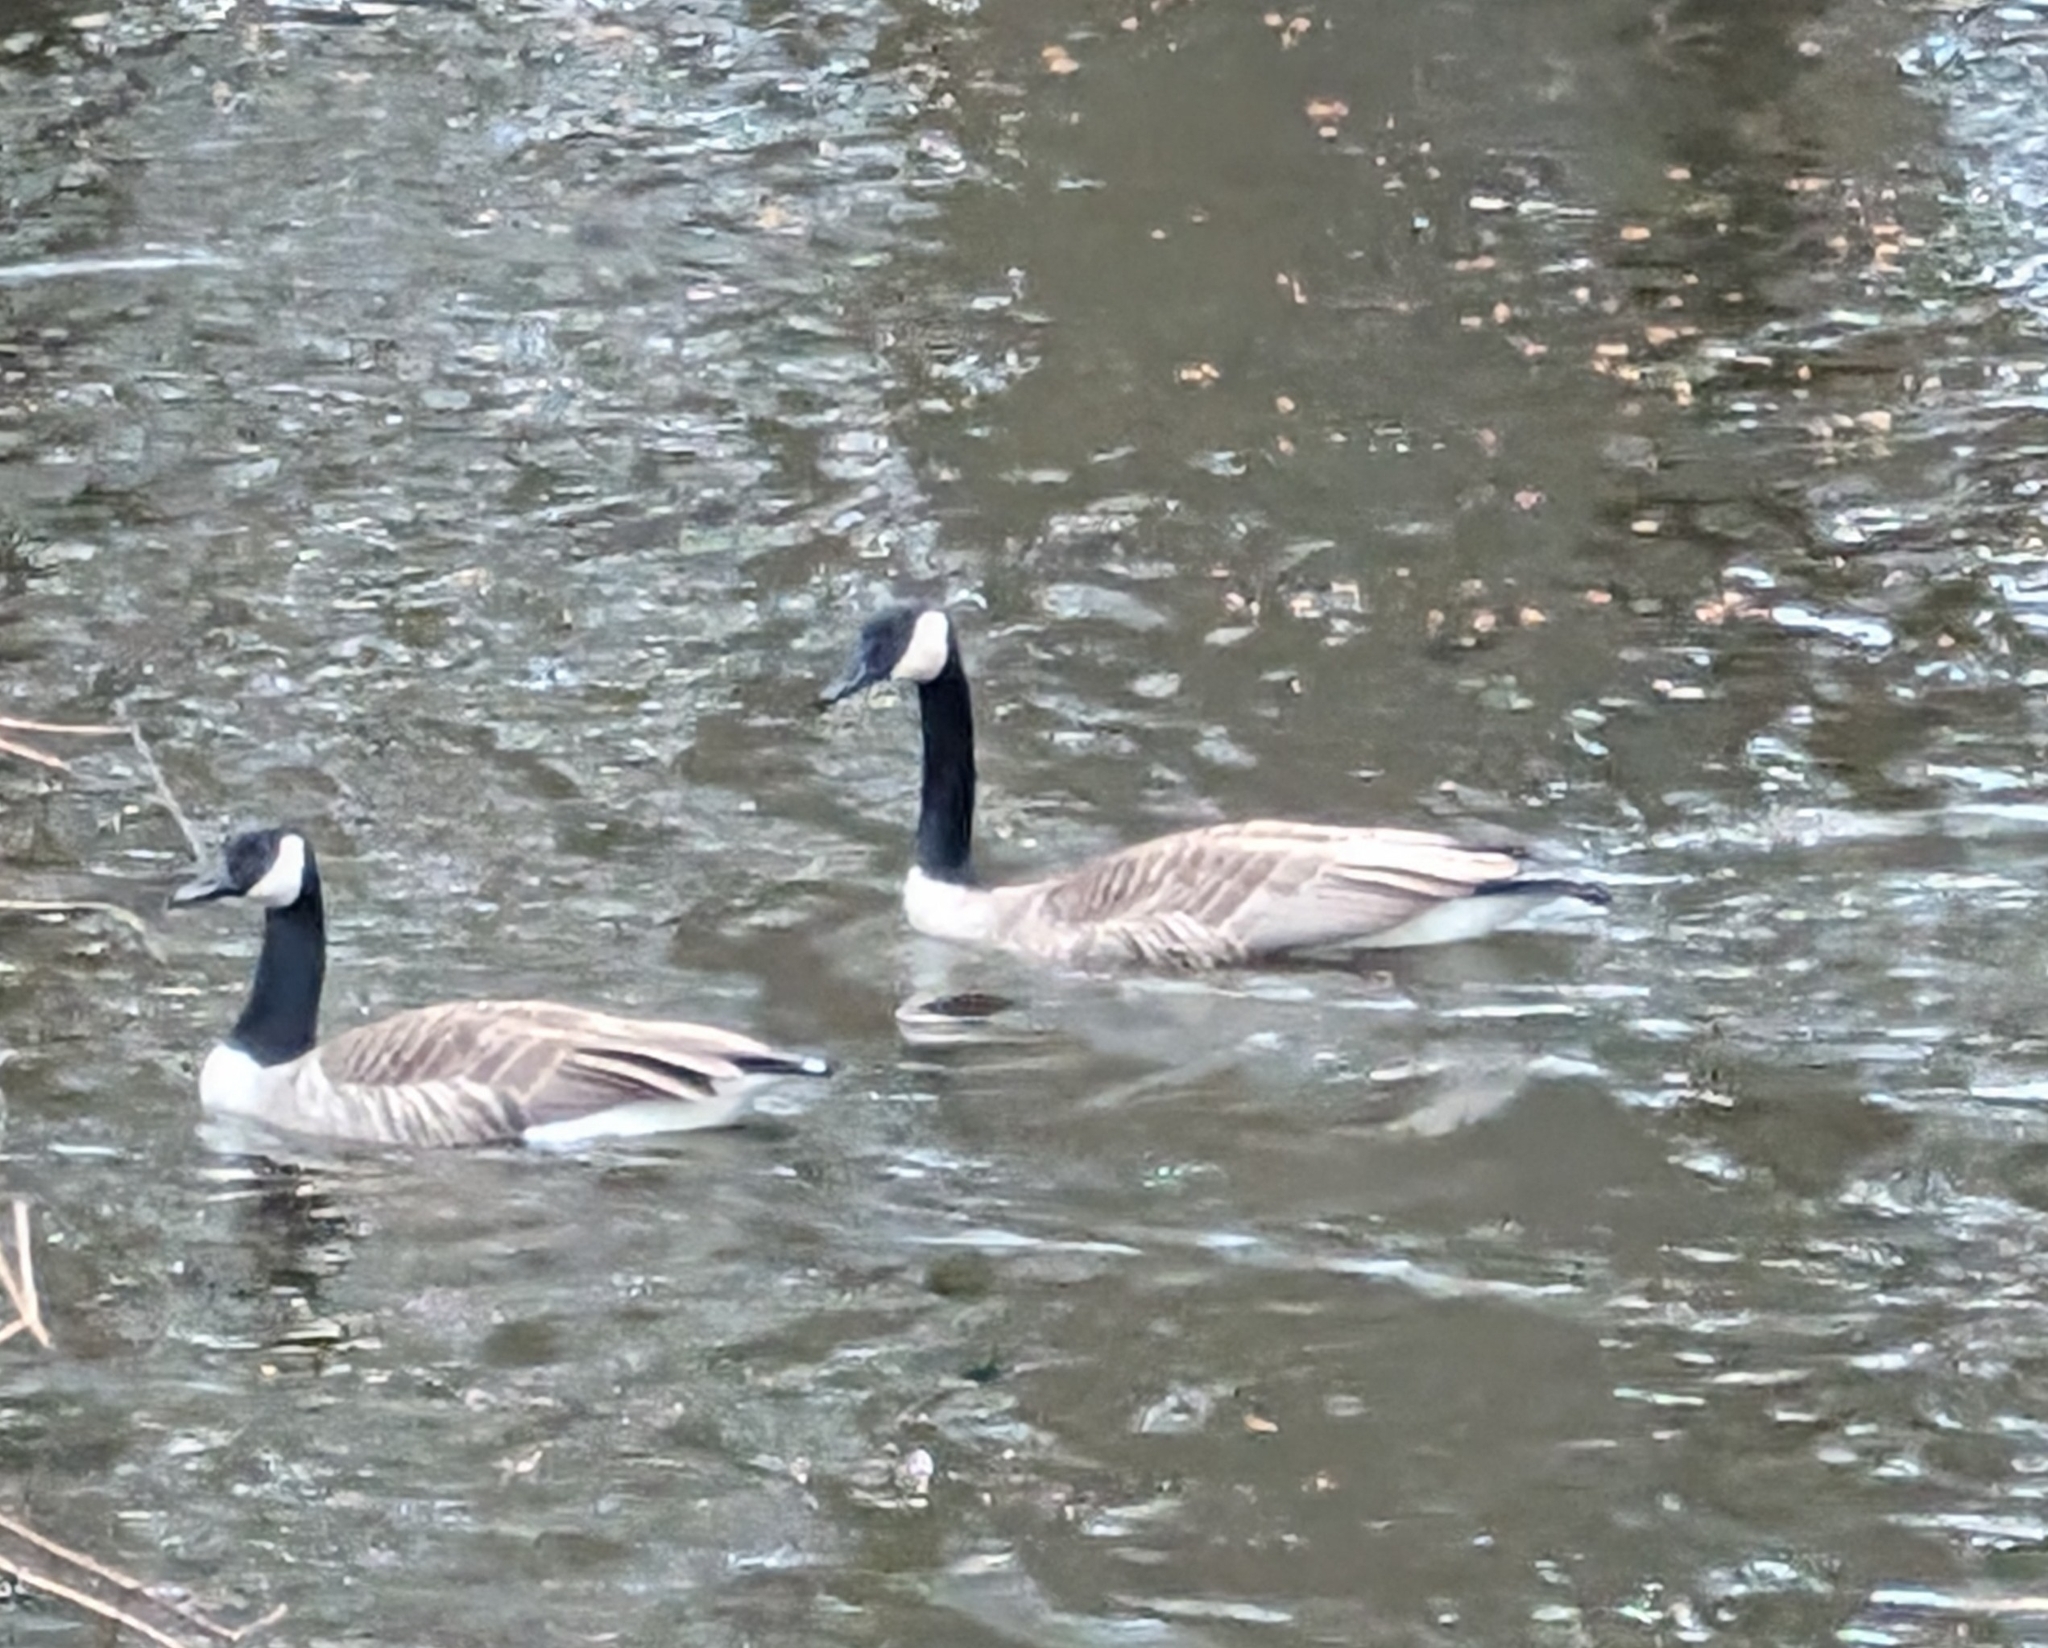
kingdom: Animalia
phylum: Chordata
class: Aves
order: Anseriformes
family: Anatidae
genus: Branta
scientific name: Branta canadensis
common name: Canada goose
